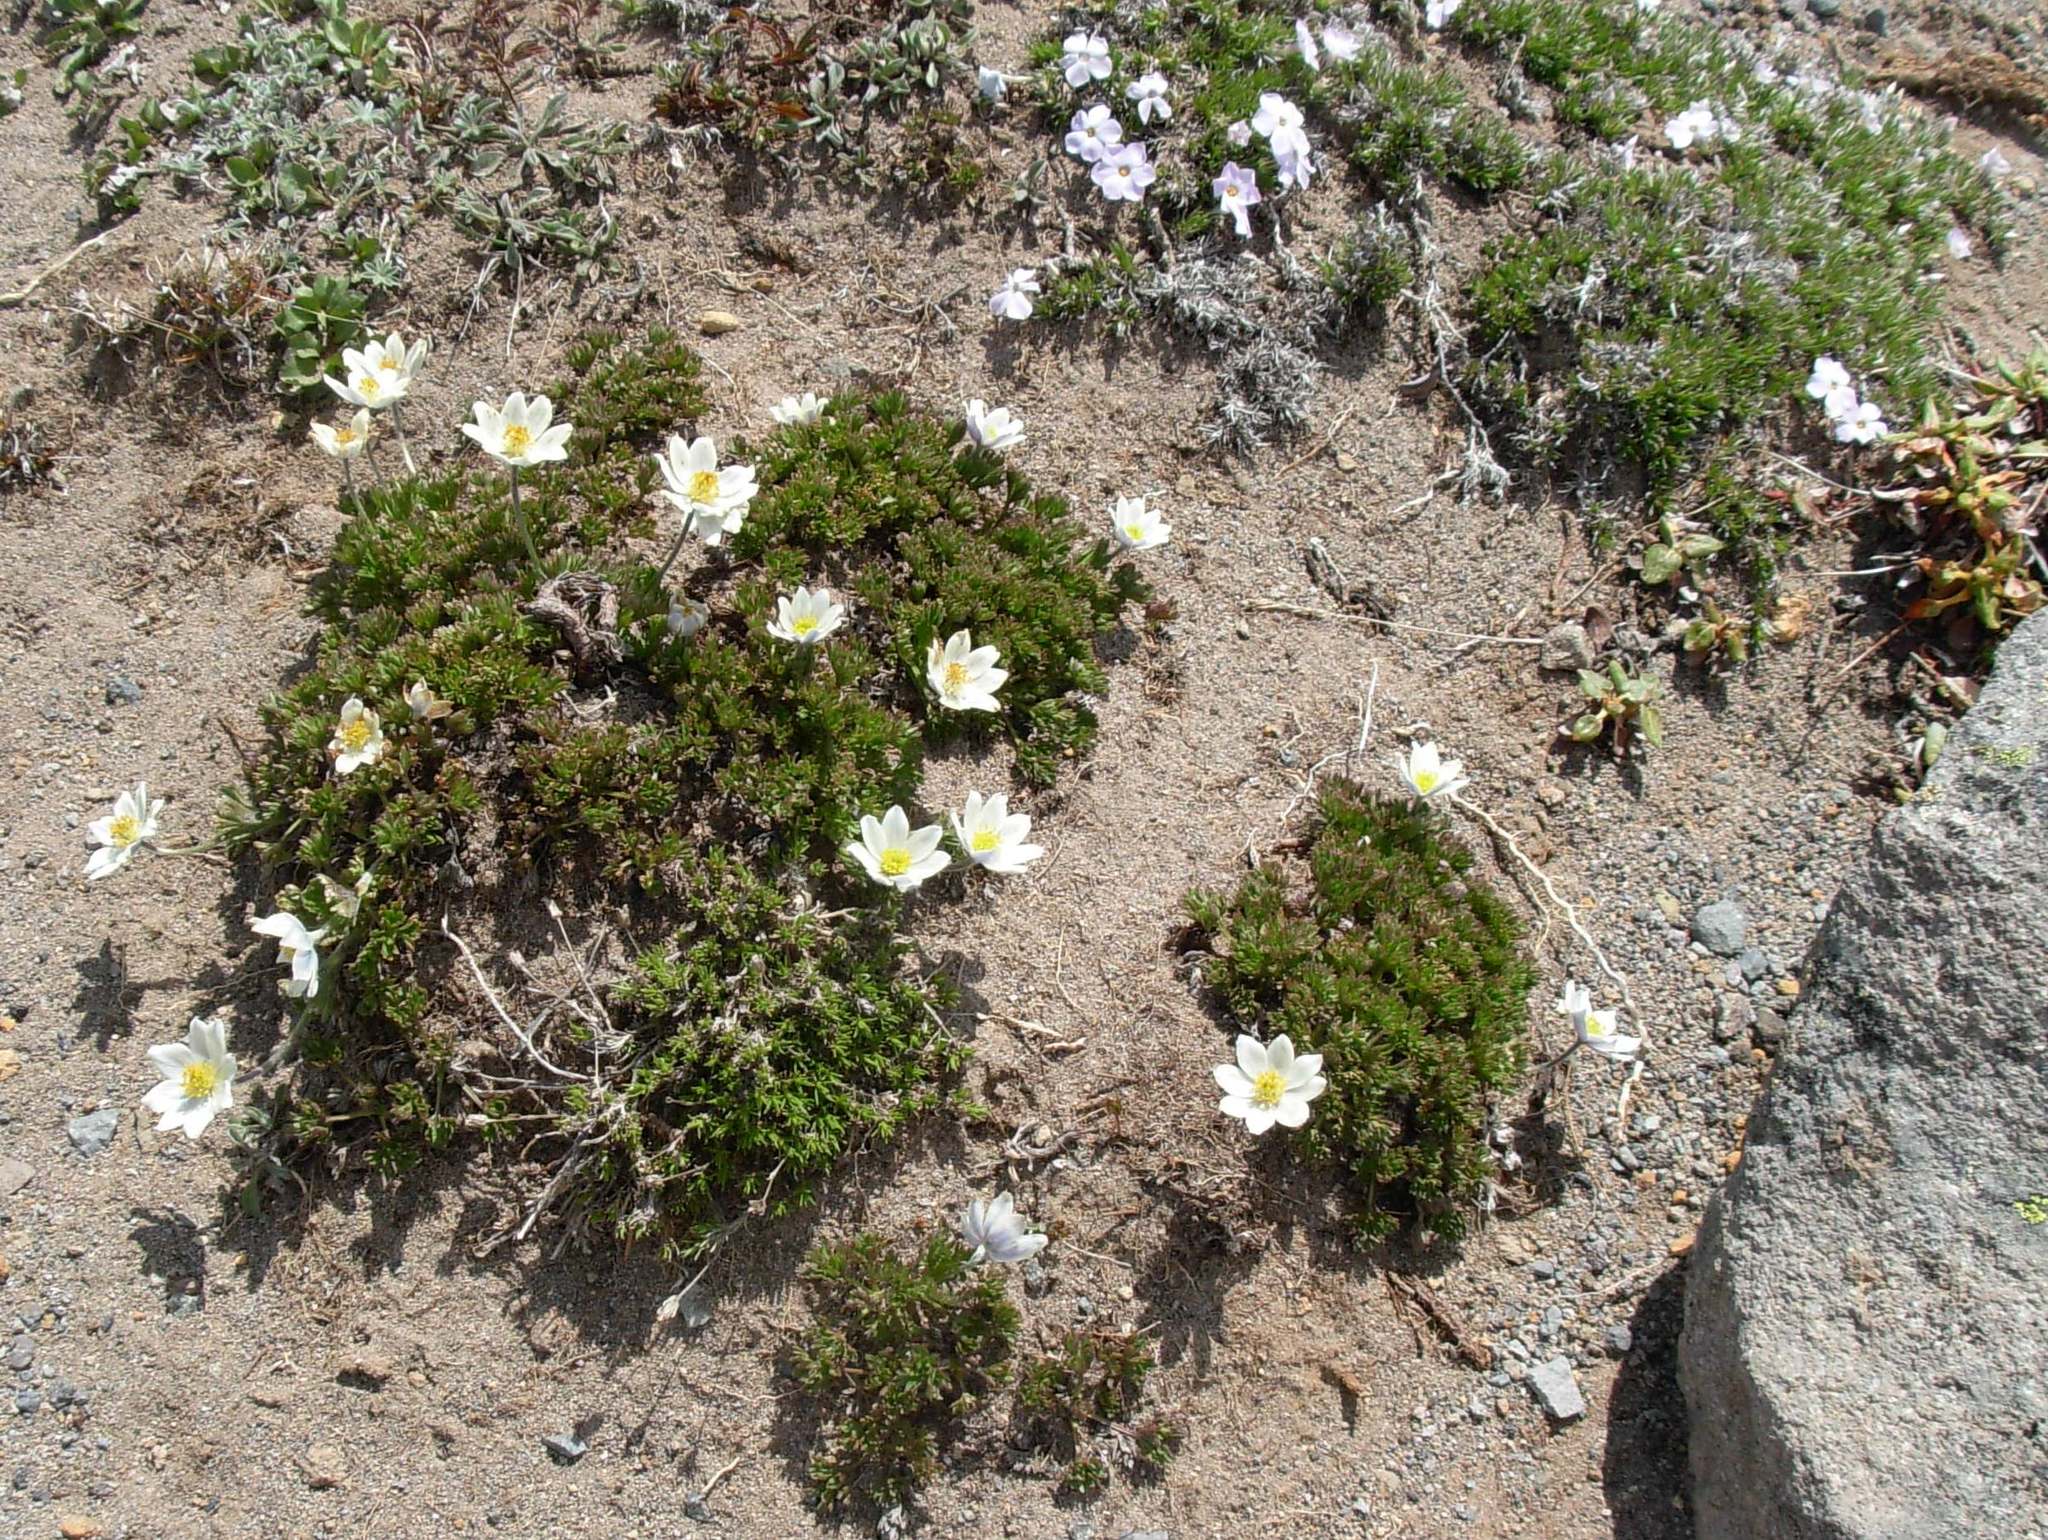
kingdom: Plantae
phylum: Tracheophyta
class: Magnoliopsida
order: Ranunculales
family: Ranunculaceae
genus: Anemone
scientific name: Anemone drummondii
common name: Drummond's anemone
